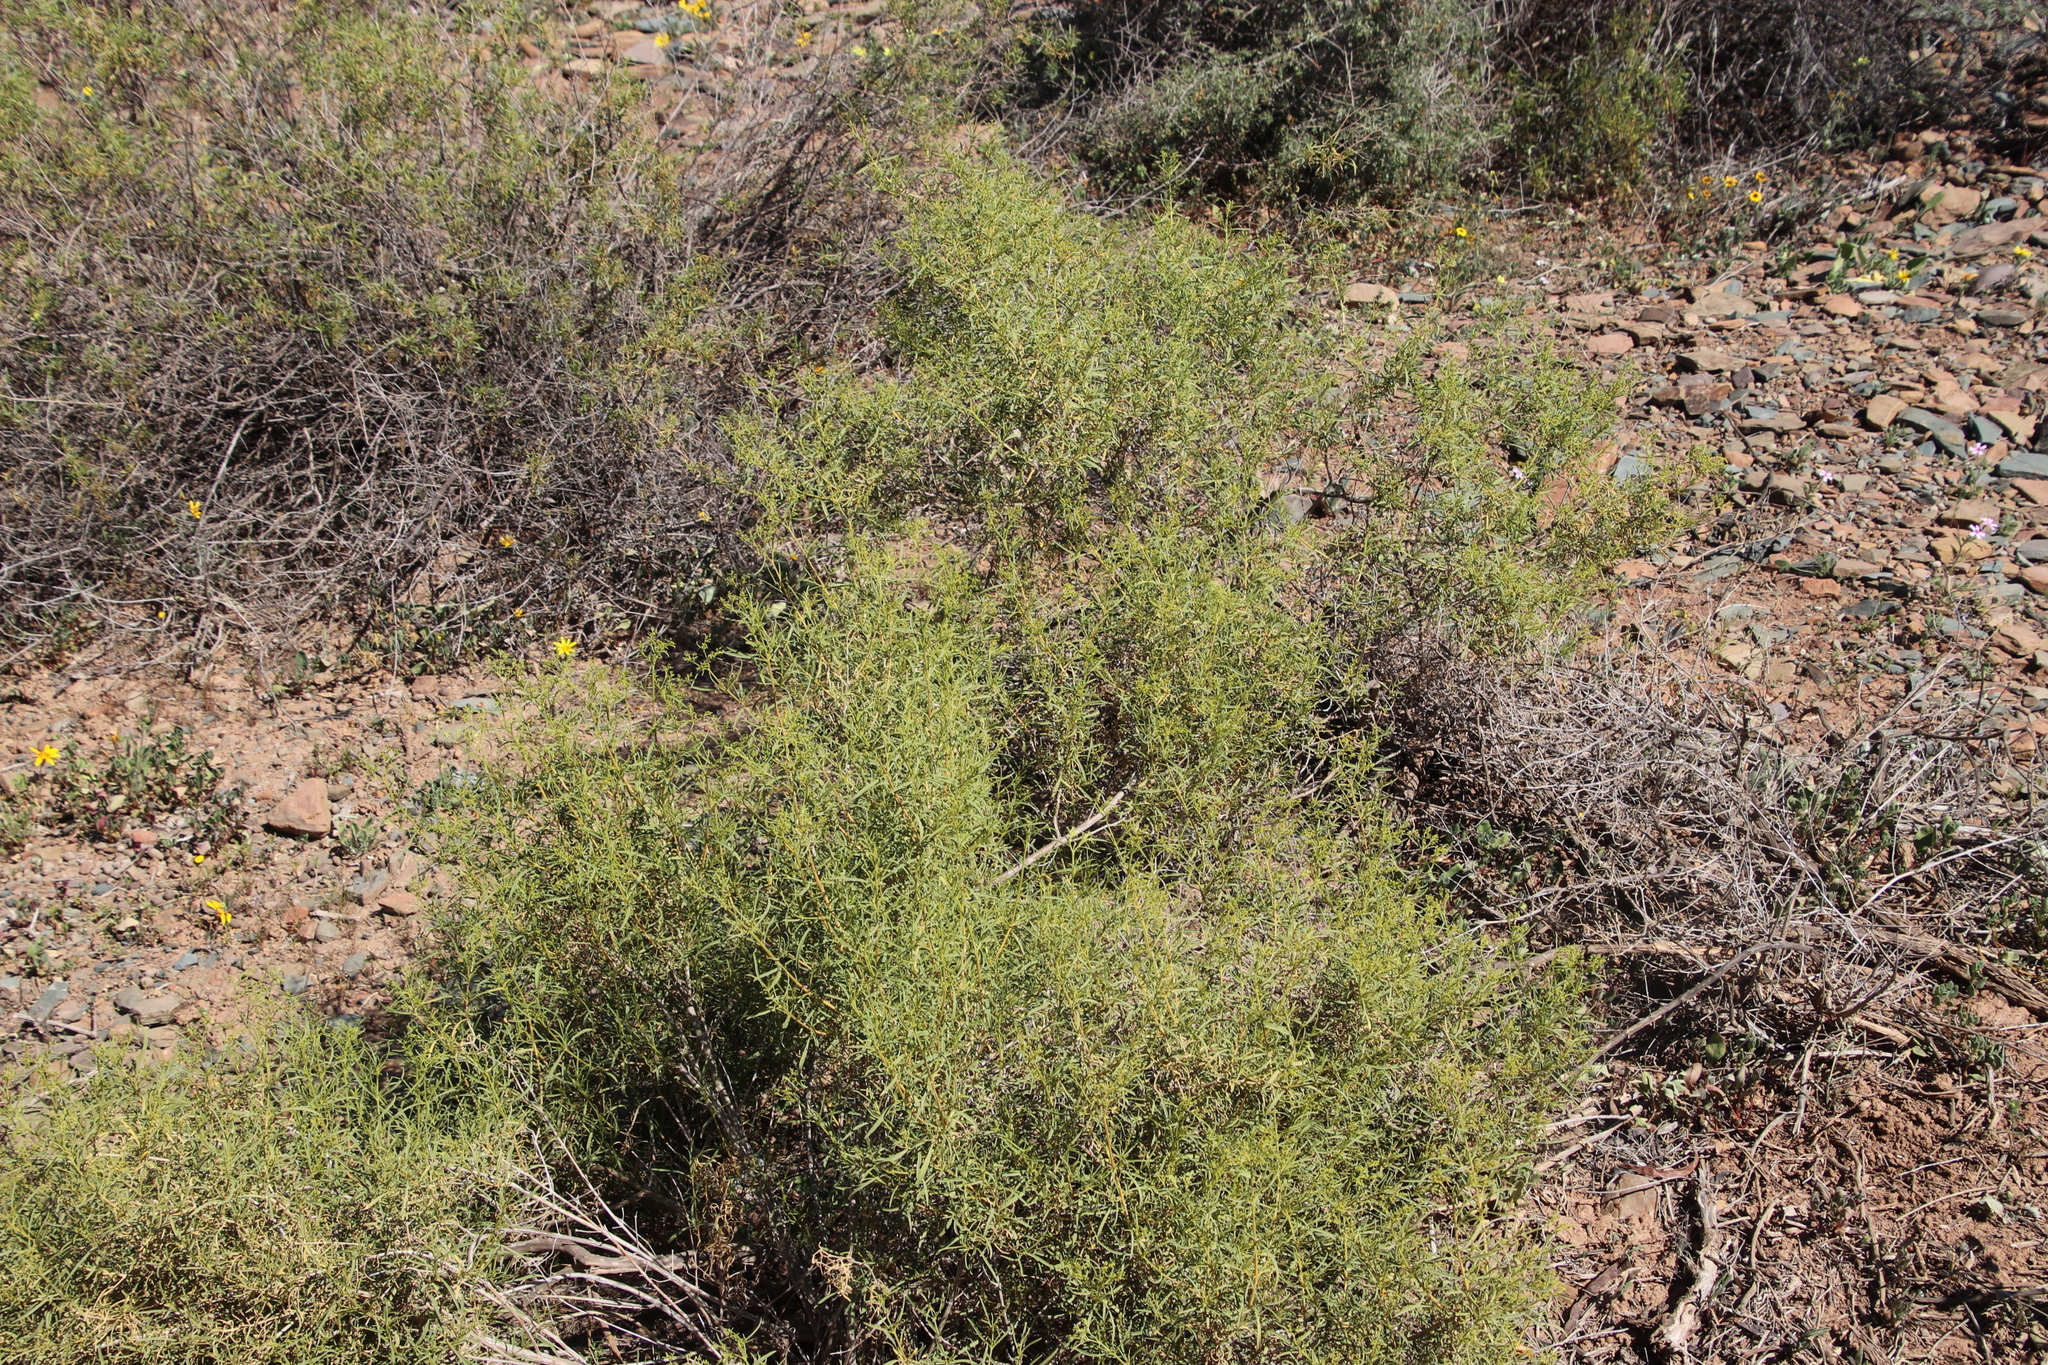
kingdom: Plantae
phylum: Tracheophyta
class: Magnoliopsida
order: Caryophyllales
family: Aizoaceae
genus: Aizoon
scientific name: Aizoon africanum
